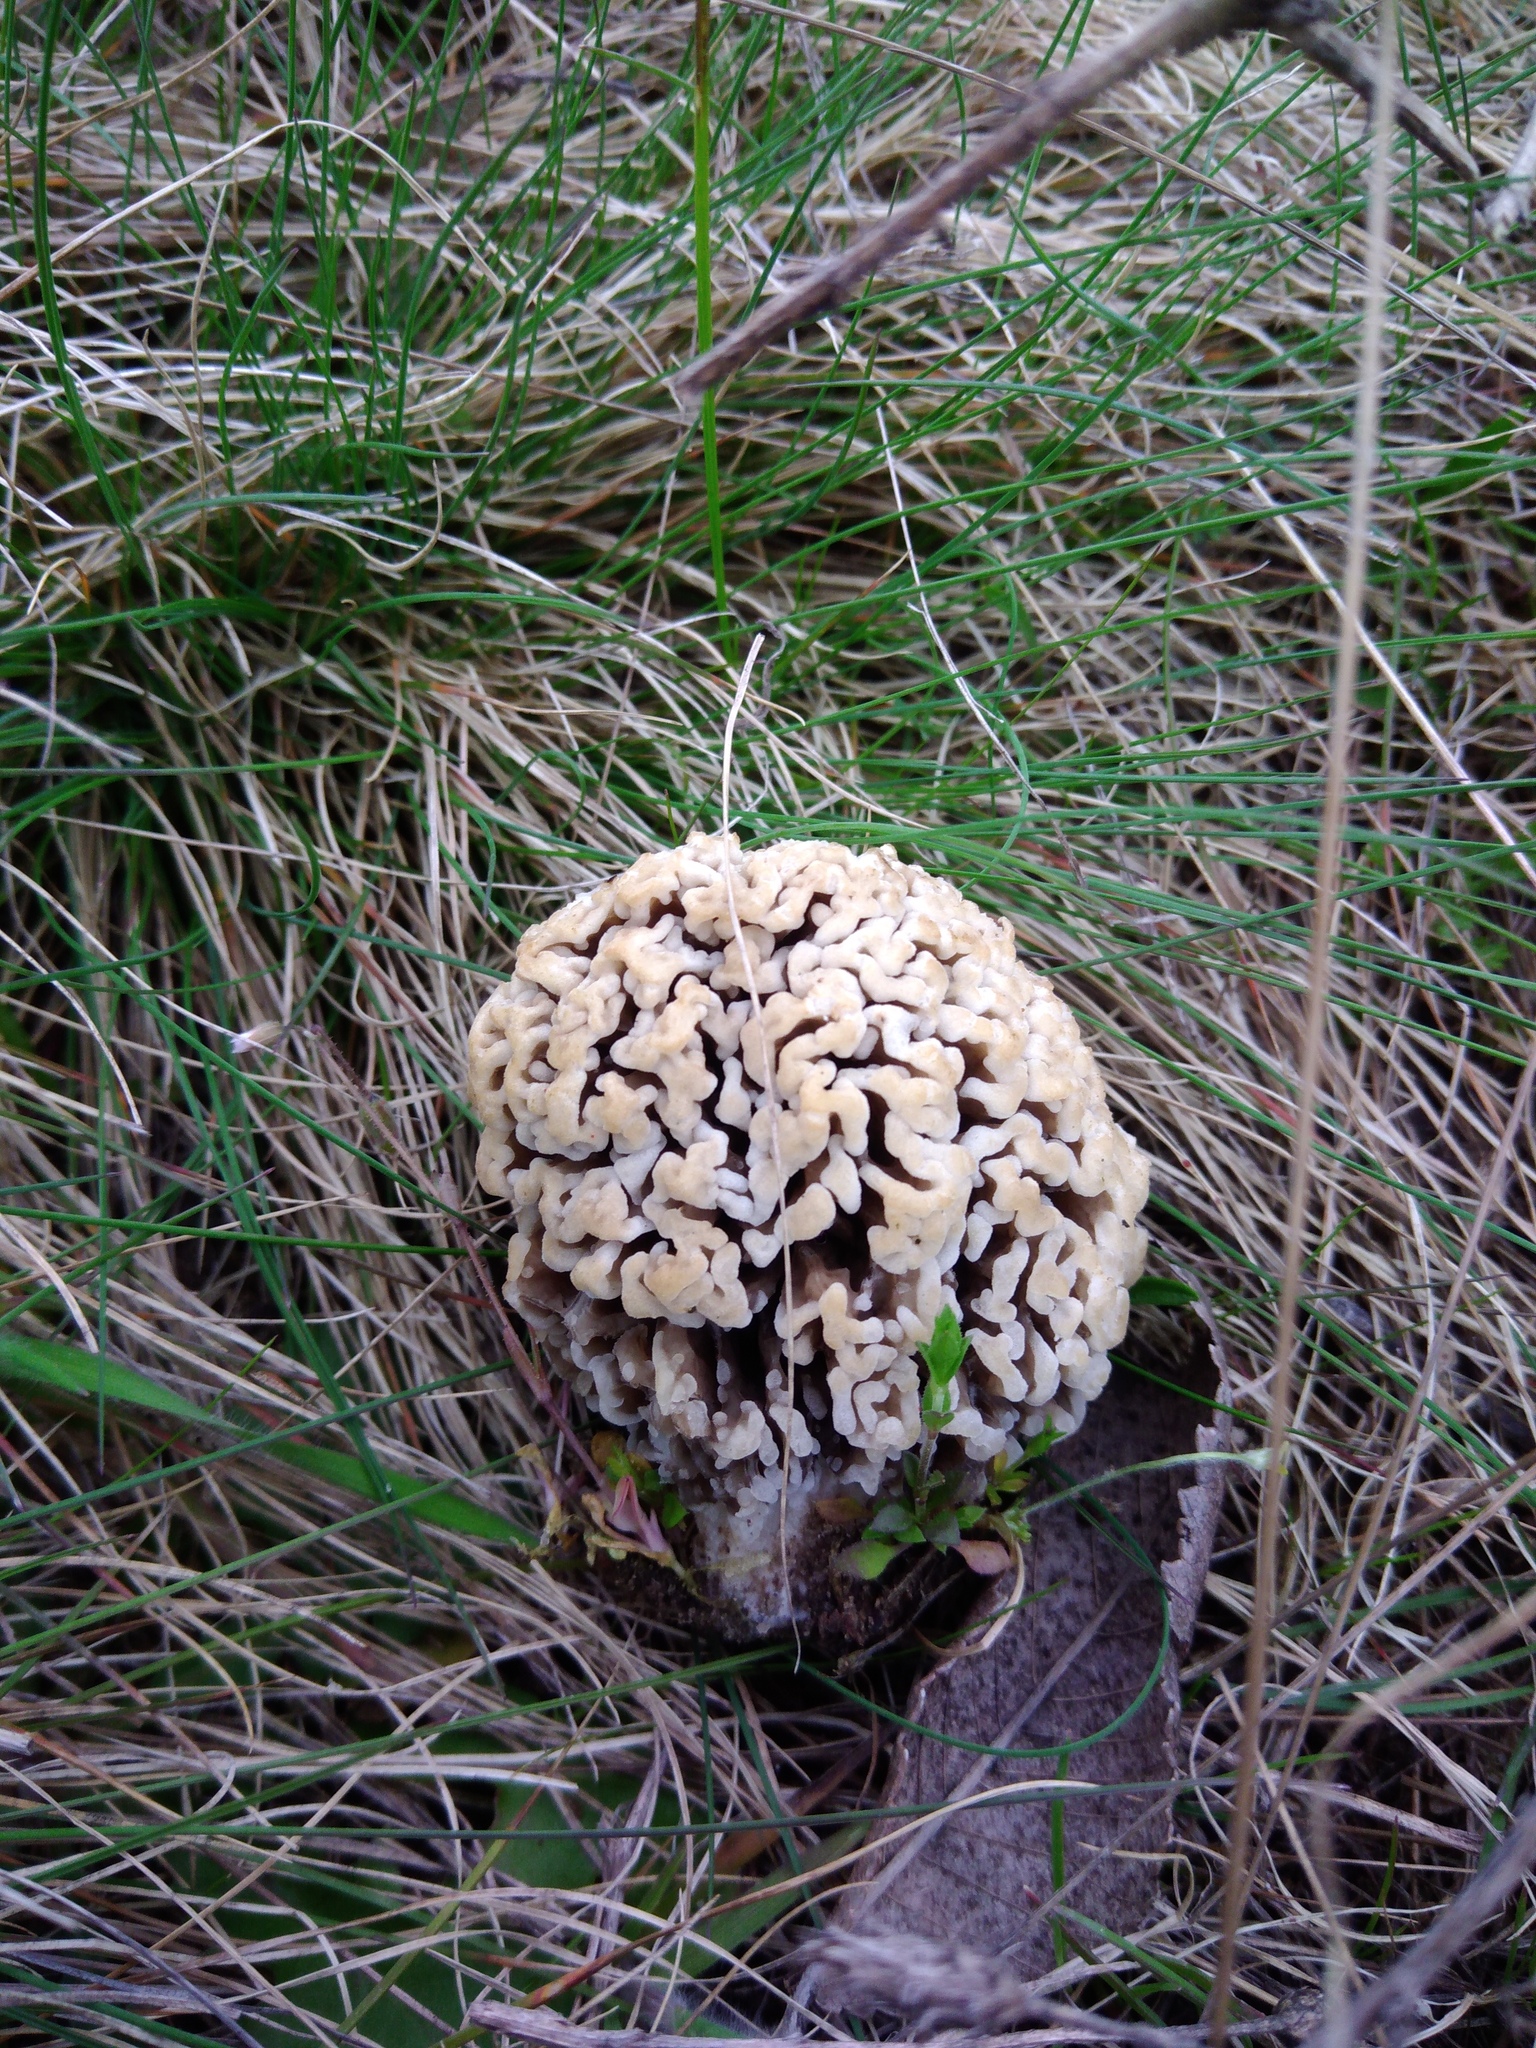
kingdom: Fungi
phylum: Ascomycota
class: Pezizomycetes
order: Pezizales
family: Morchellaceae
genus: Morchella
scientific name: Morchella steppicola
